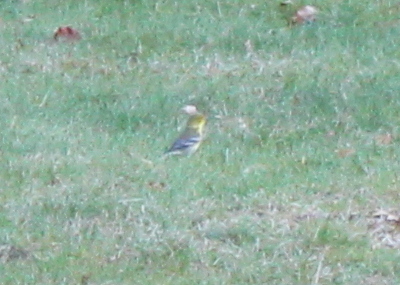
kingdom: Animalia
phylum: Chordata
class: Aves
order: Passeriformes
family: Parulidae
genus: Setophaga
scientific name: Setophaga pinus
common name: Pine warbler
